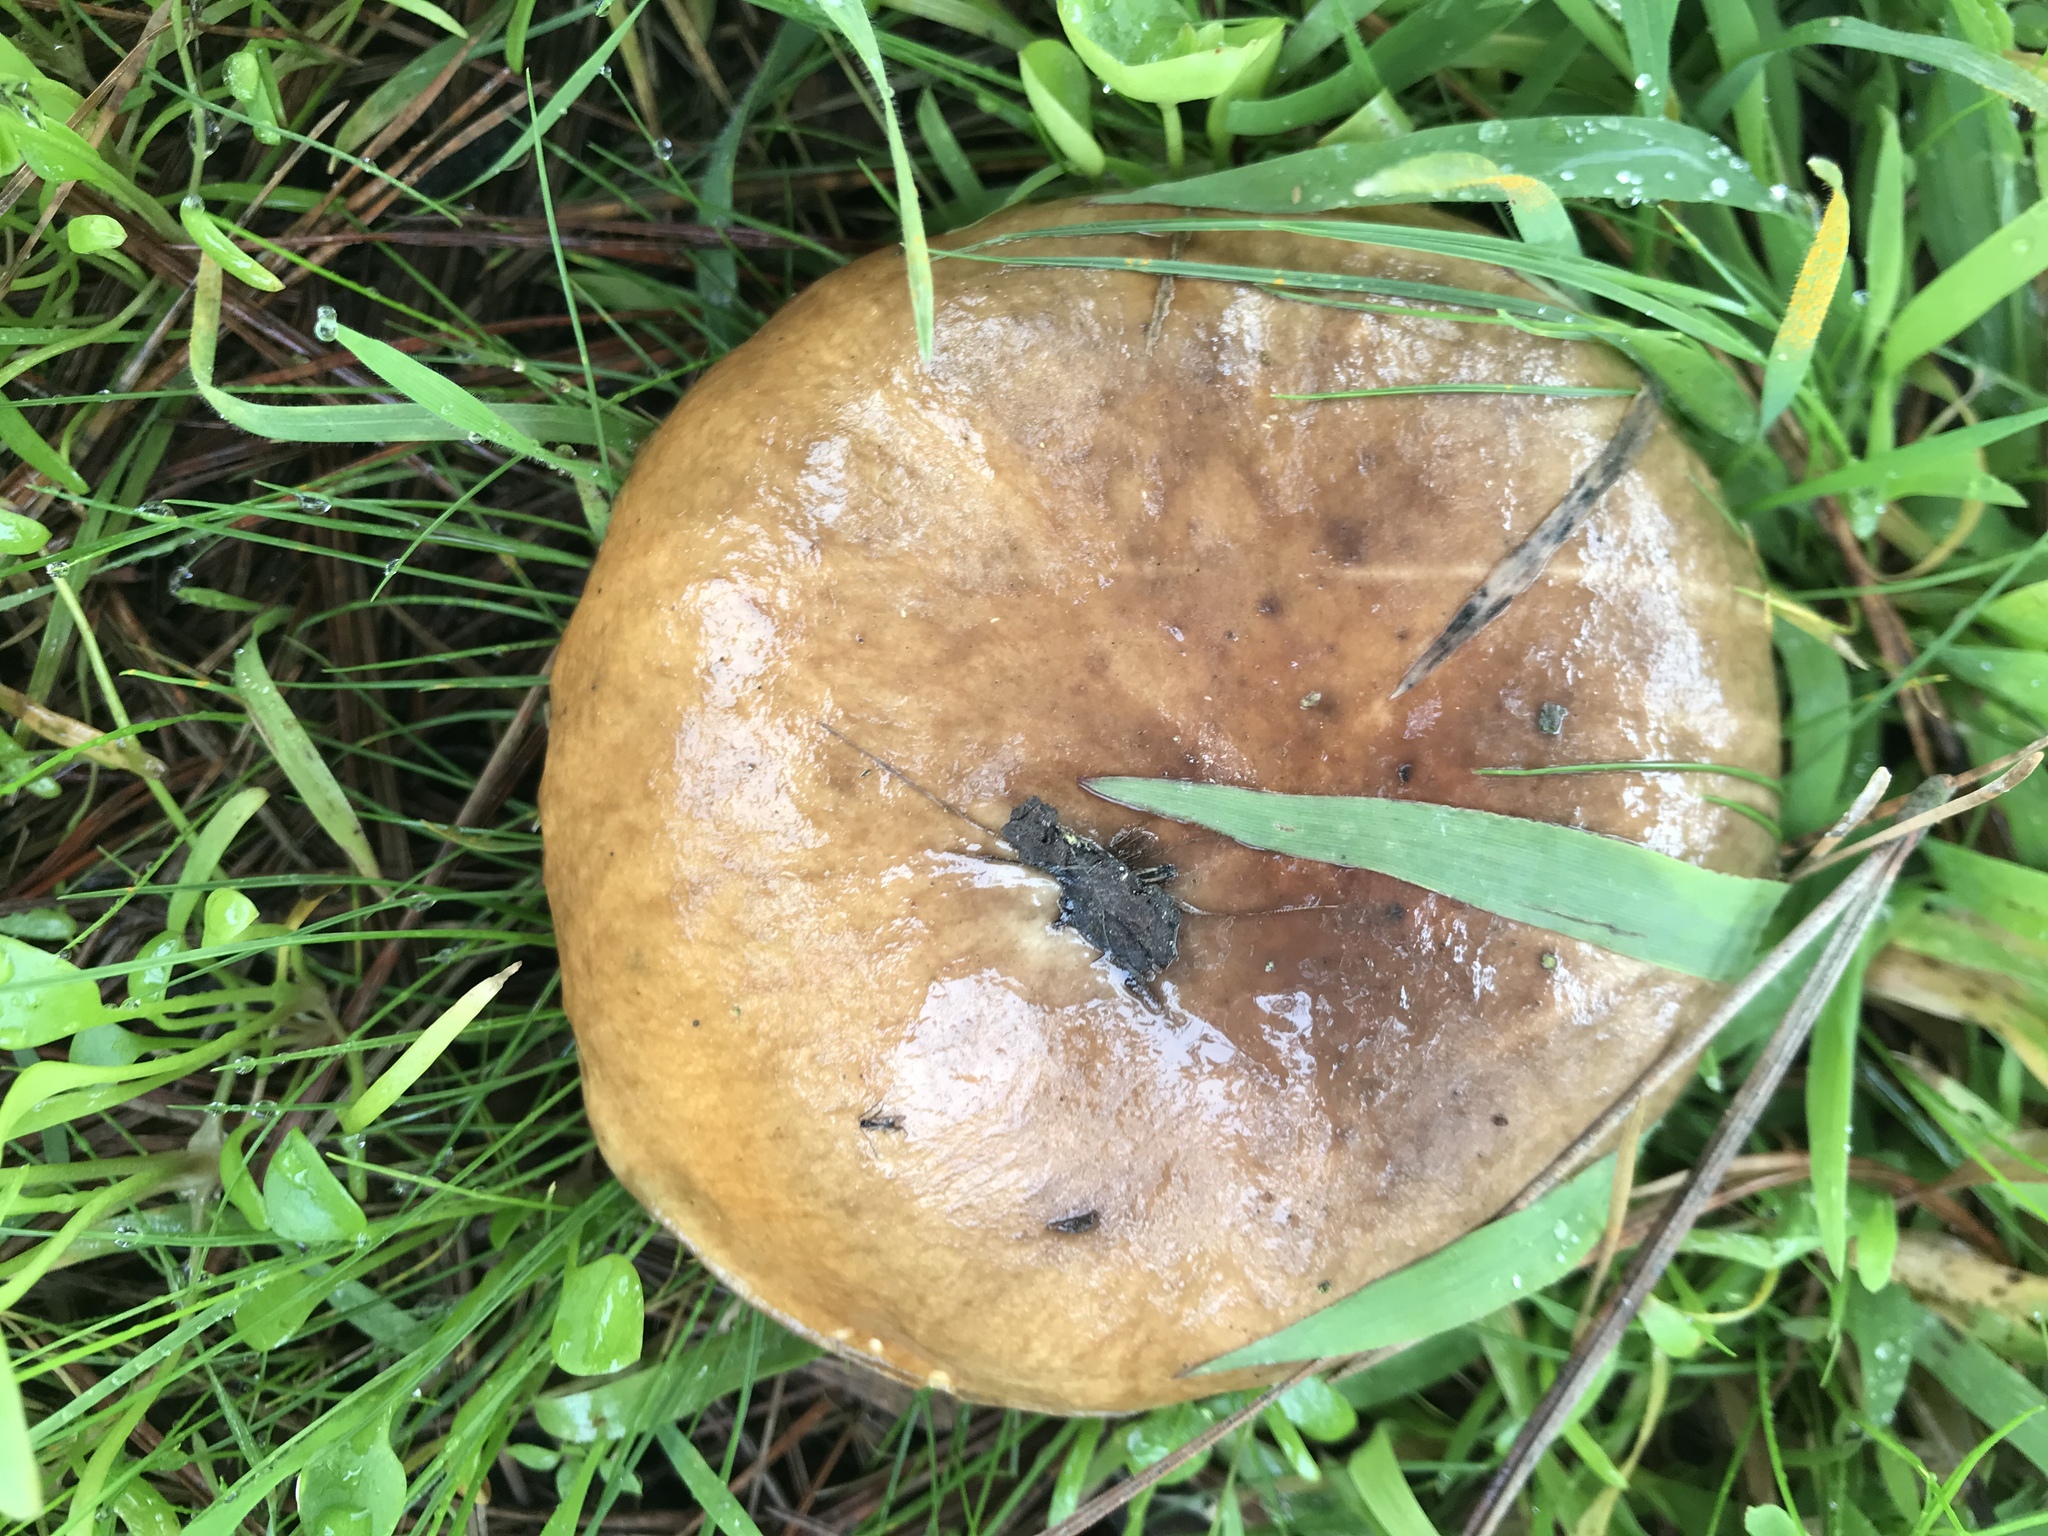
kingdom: Fungi
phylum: Basidiomycota
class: Agaricomycetes
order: Boletales
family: Suillaceae
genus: Suillus
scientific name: Suillus caerulescens
